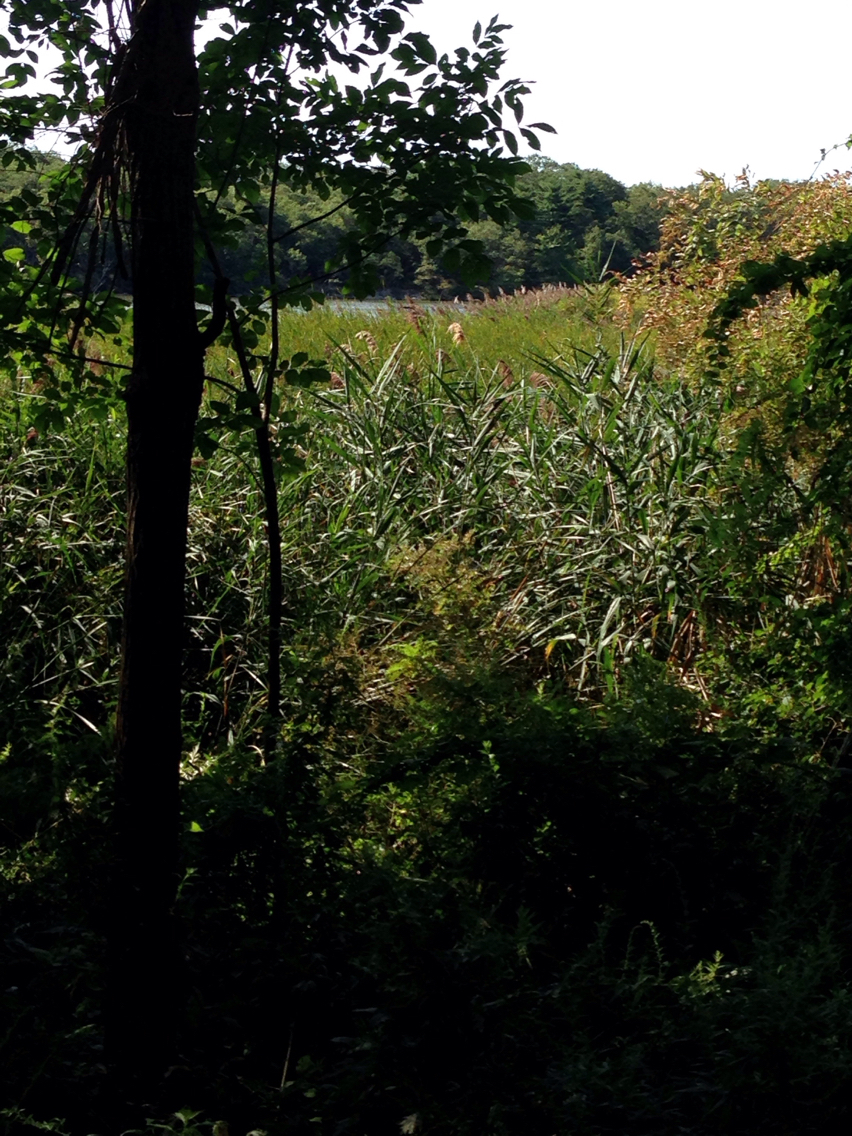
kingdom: Plantae
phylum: Tracheophyta
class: Liliopsida
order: Poales
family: Poaceae
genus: Phragmites
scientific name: Phragmites australis
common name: Common reed
